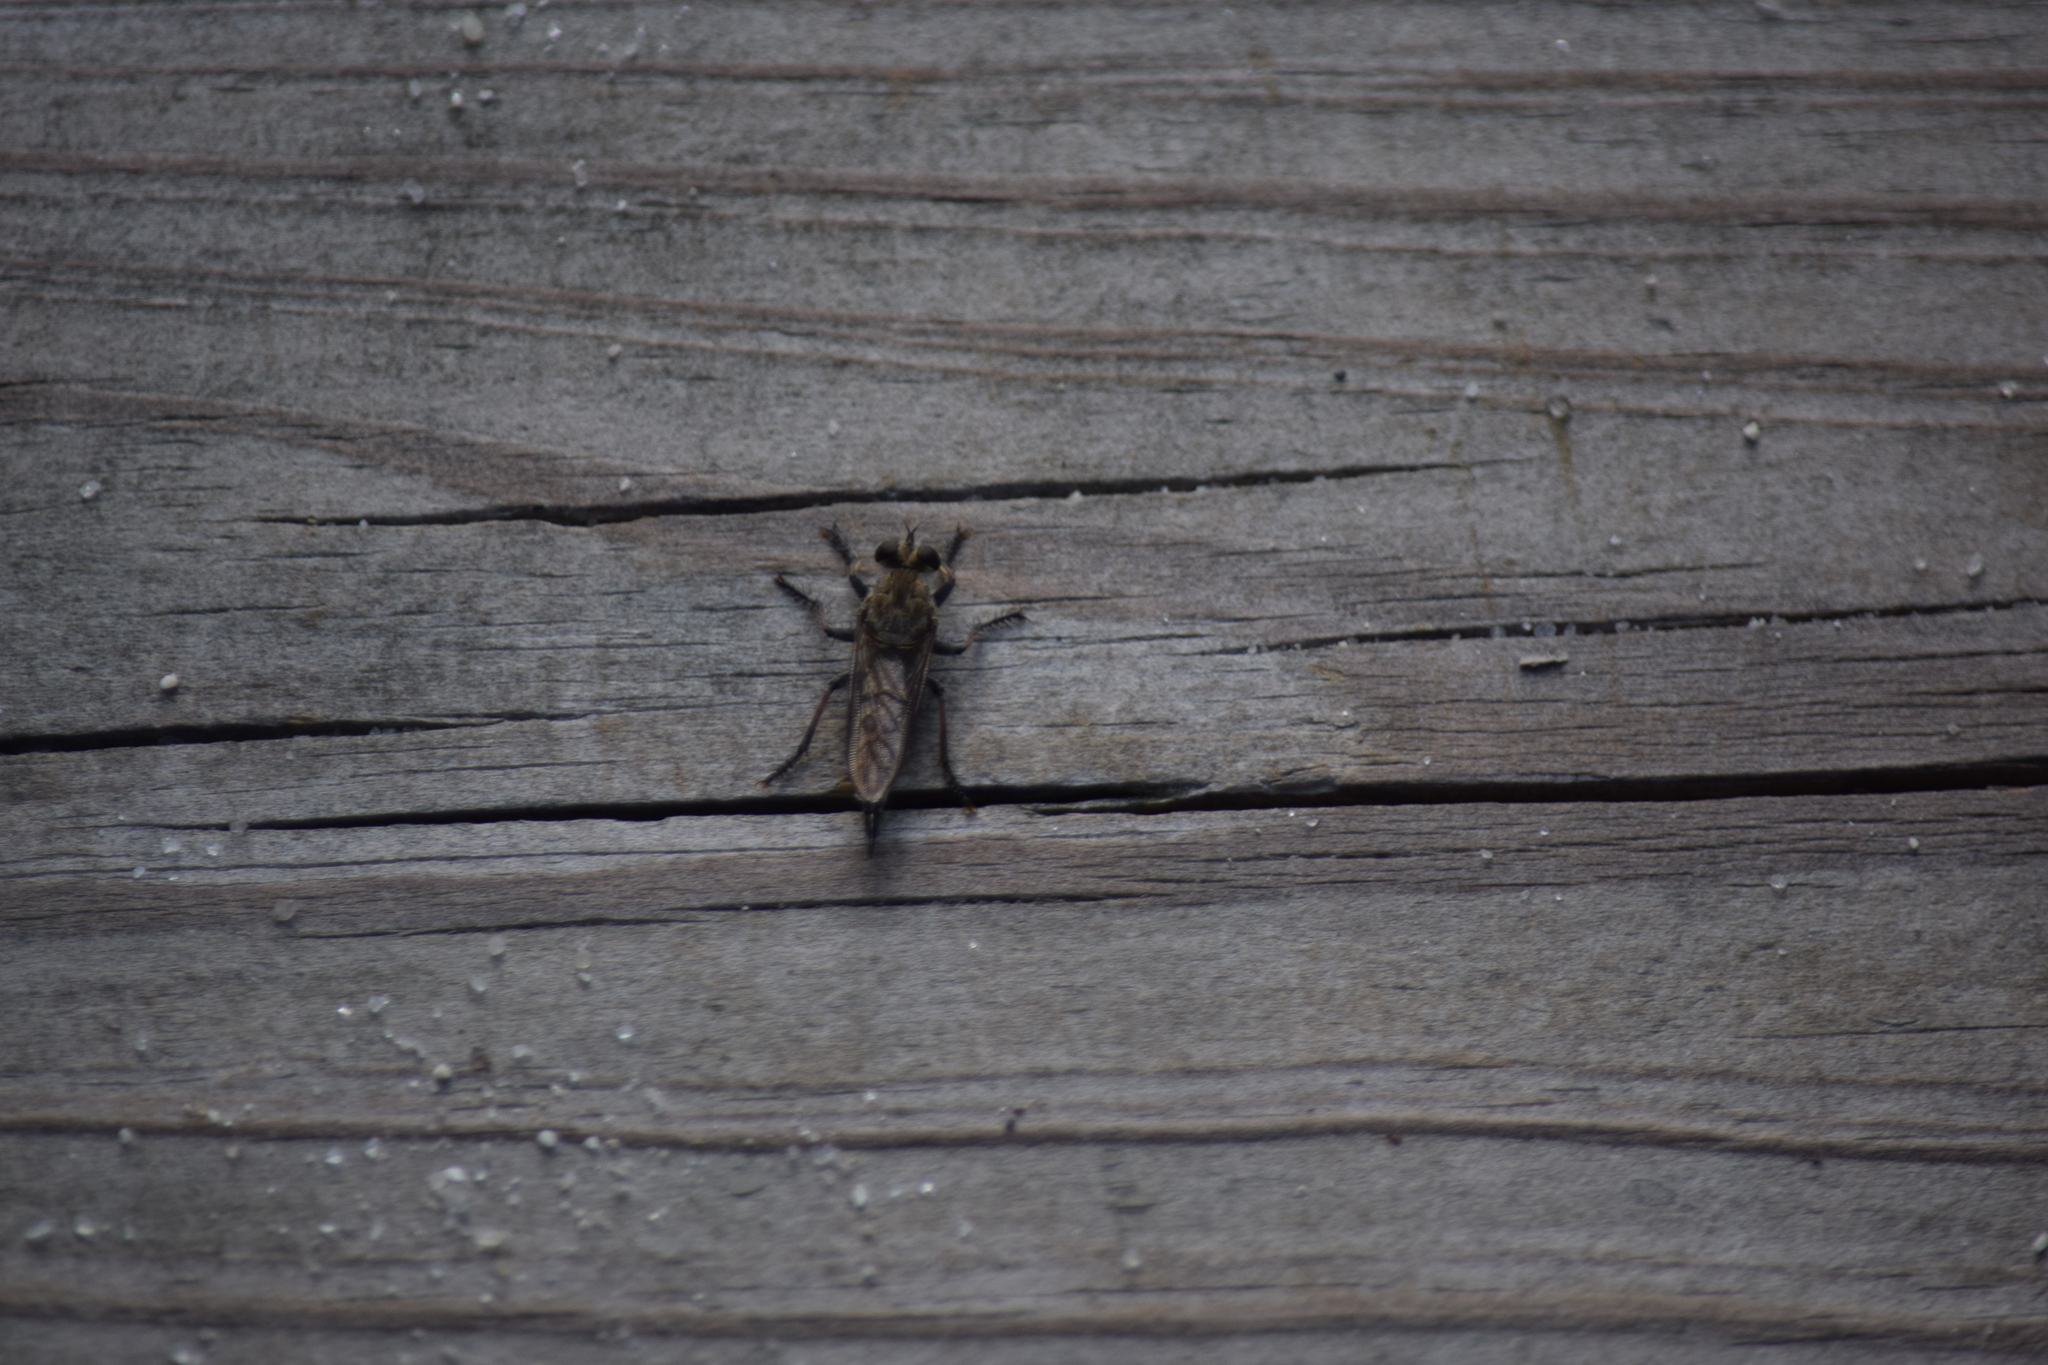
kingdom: Animalia
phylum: Arthropoda
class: Insecta
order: Diptera
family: Asilidae
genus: Efferia
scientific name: Efferia albibarbis
